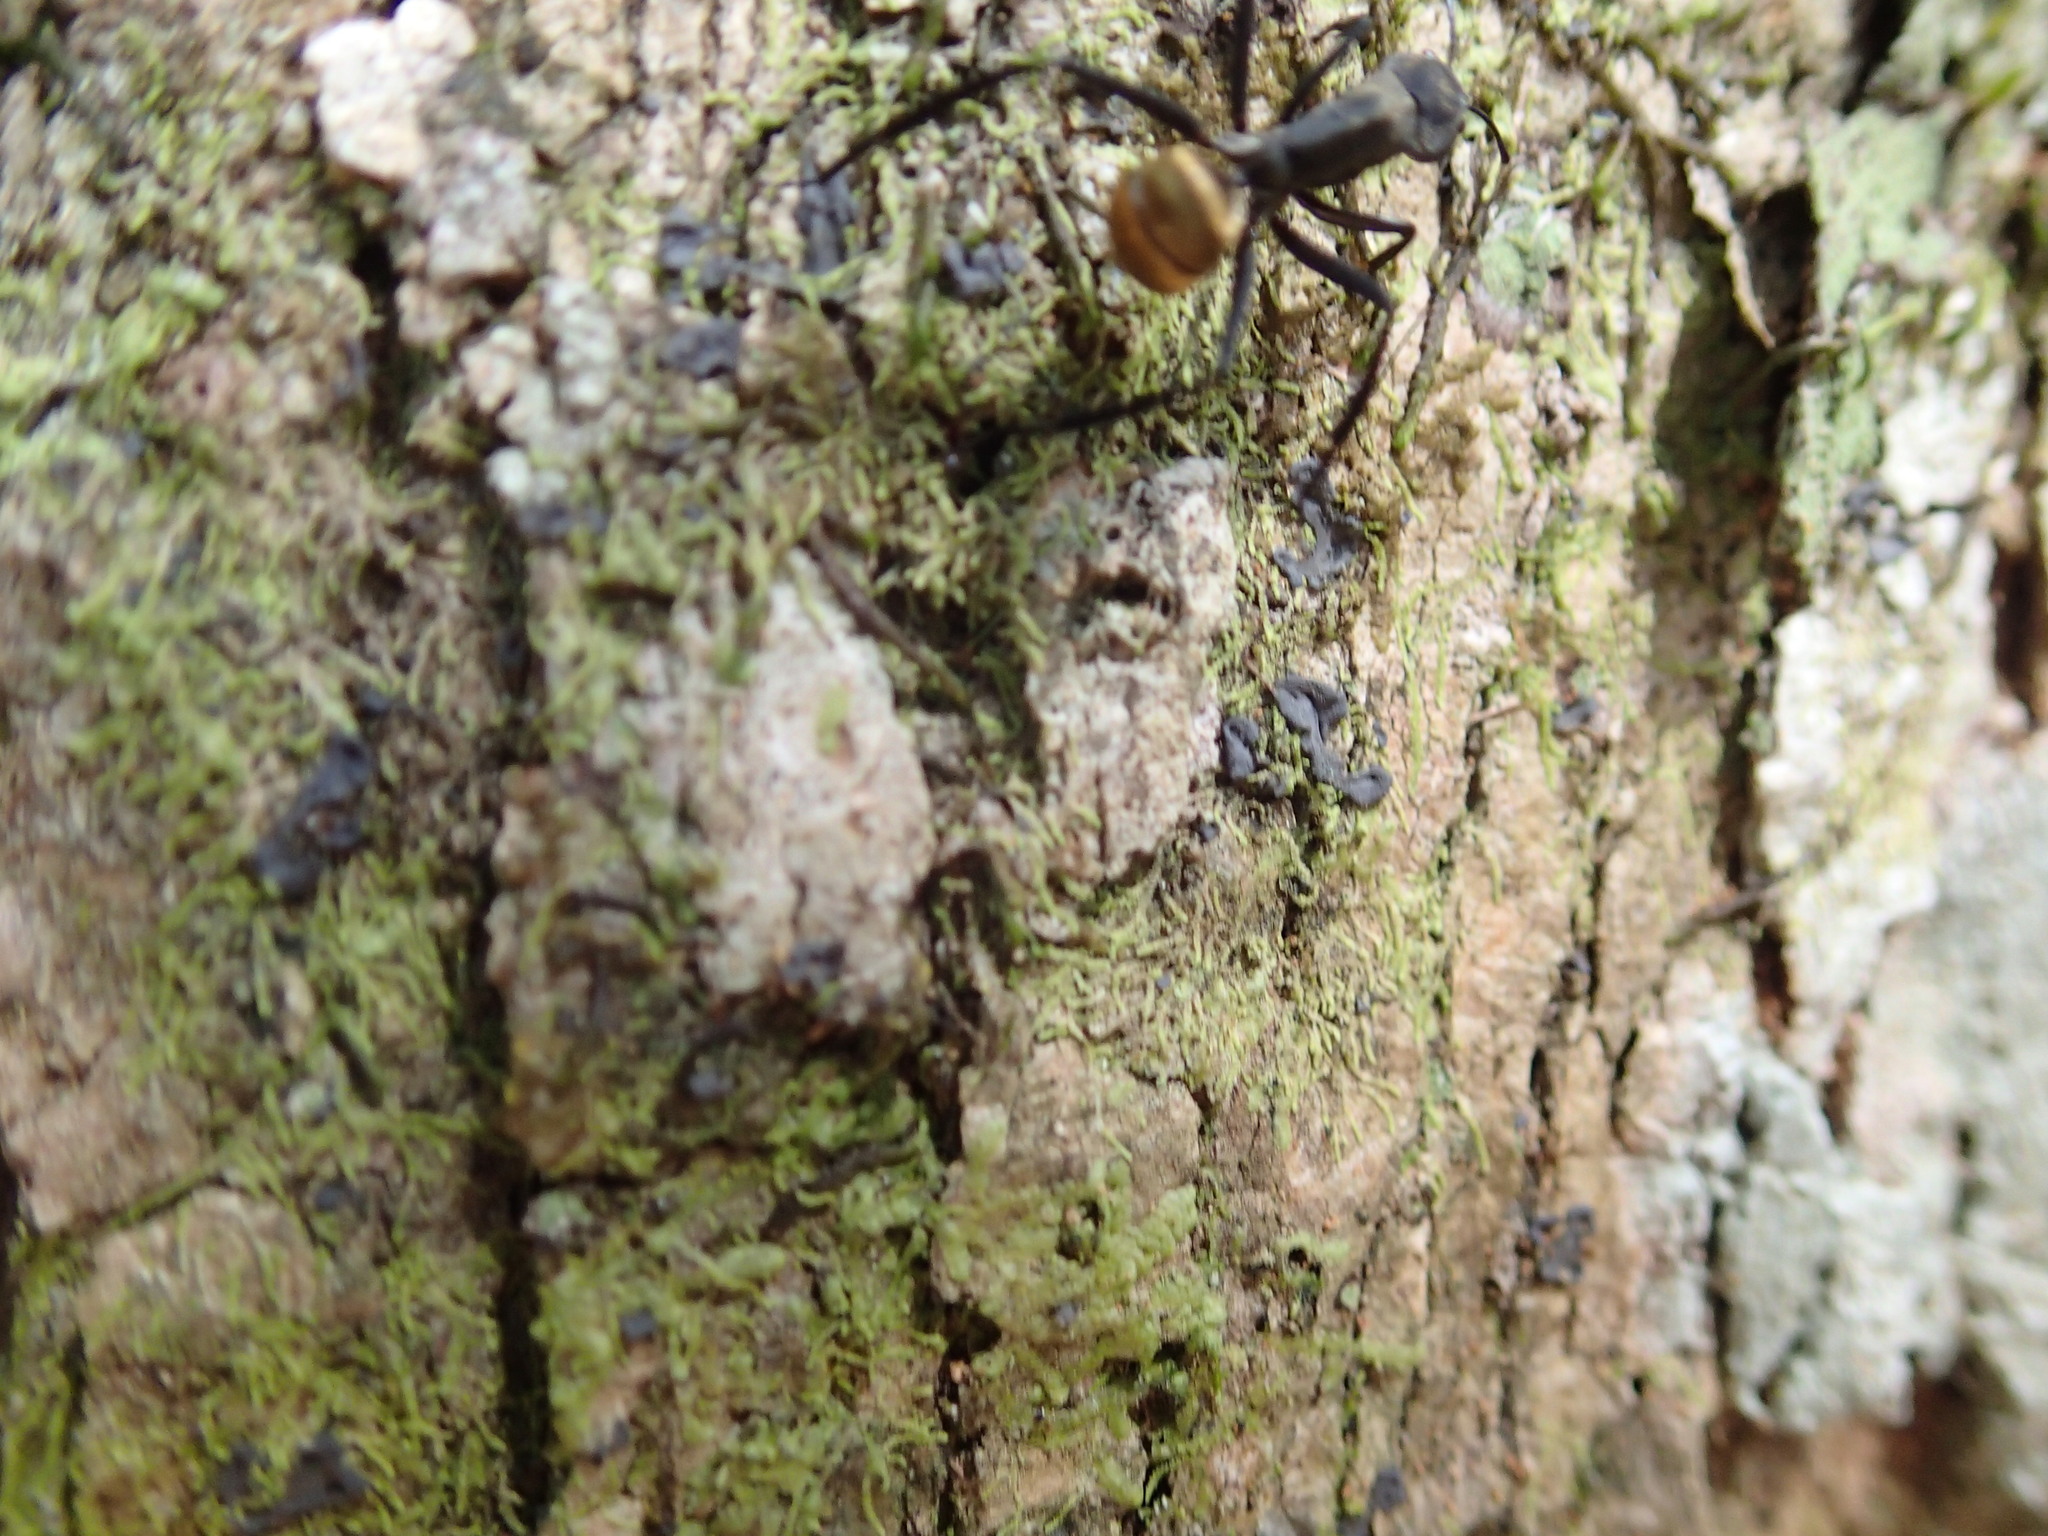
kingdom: Animalia
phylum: Arthropoda
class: Insecta
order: Hymenoptera
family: Formicidae
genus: Camponotus
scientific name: Camponotus sericeiventris
